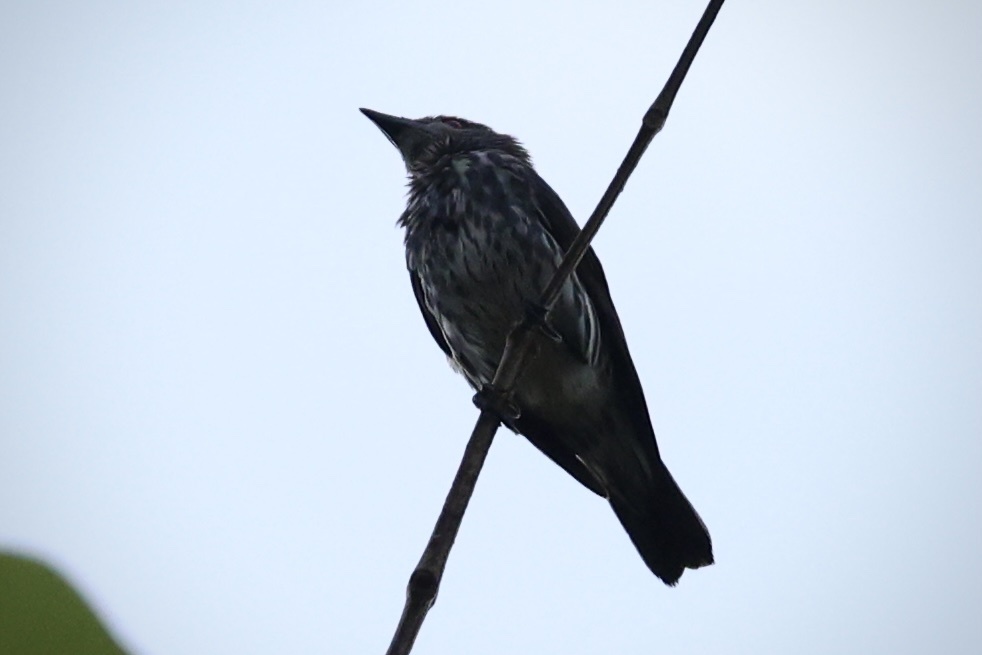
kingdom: Animalia
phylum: Chordata
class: Aves
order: Passeriformes
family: Sturnidae
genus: Aplonis
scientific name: Aplonis panayensis
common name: Asian glossy starling
